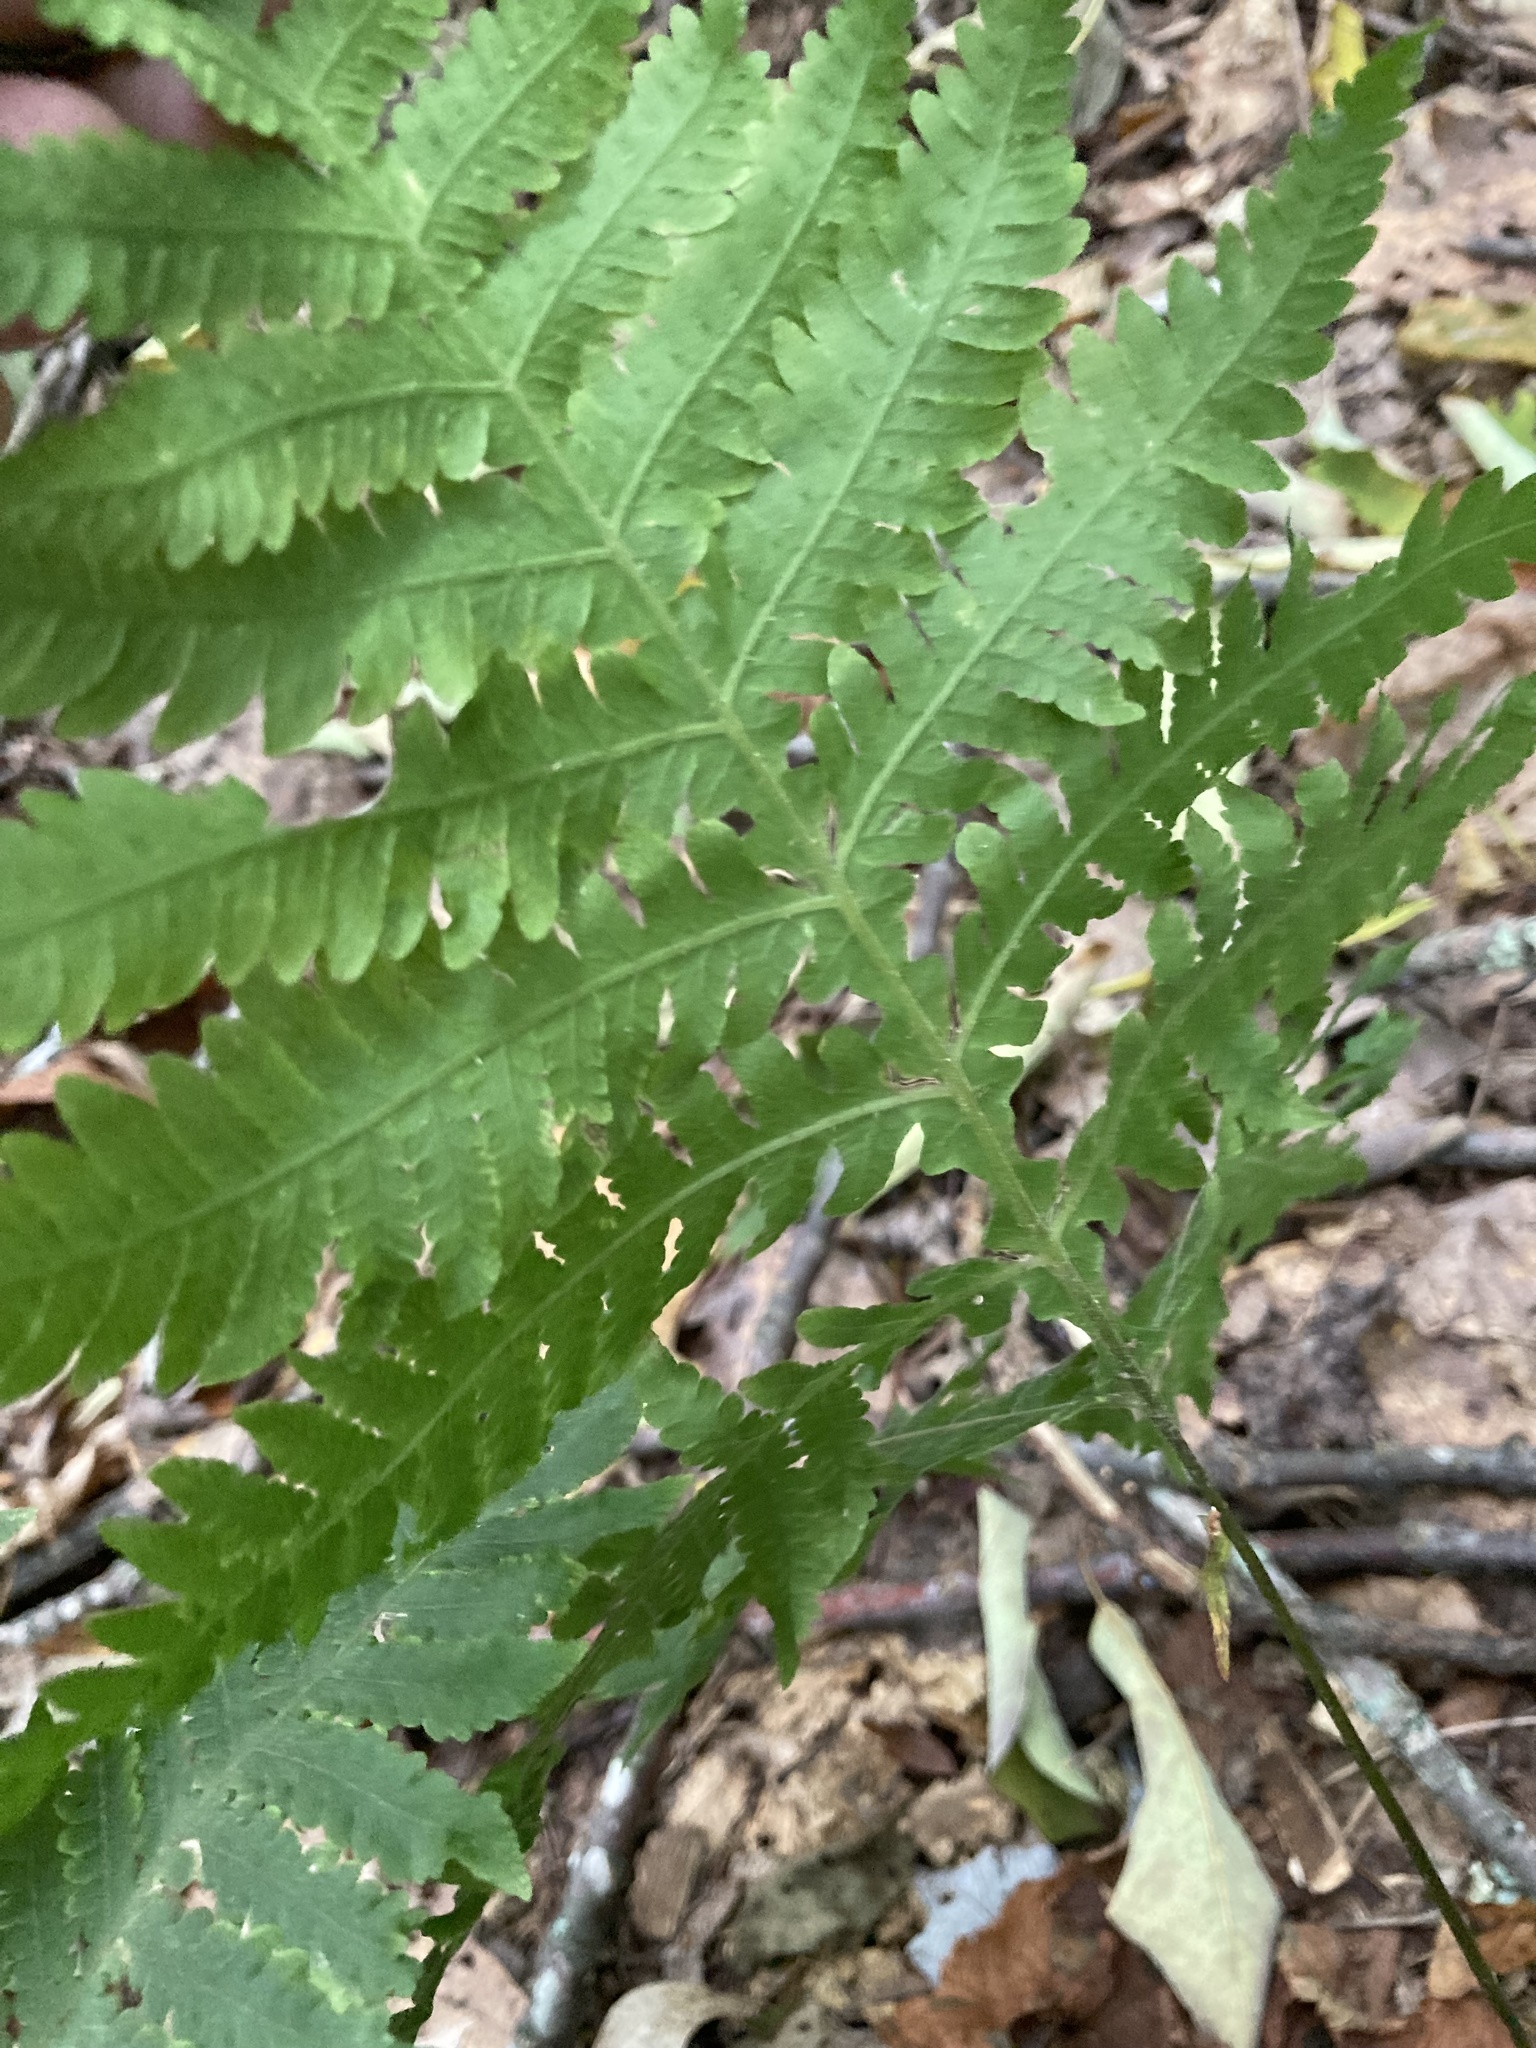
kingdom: Plantae
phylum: Tracheophyta
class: Polypodiopsida
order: Polypodiales
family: Thelypteridaceae
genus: Phegopteris
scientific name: Phegopteris hexagonoptera
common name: Broad beech fern
